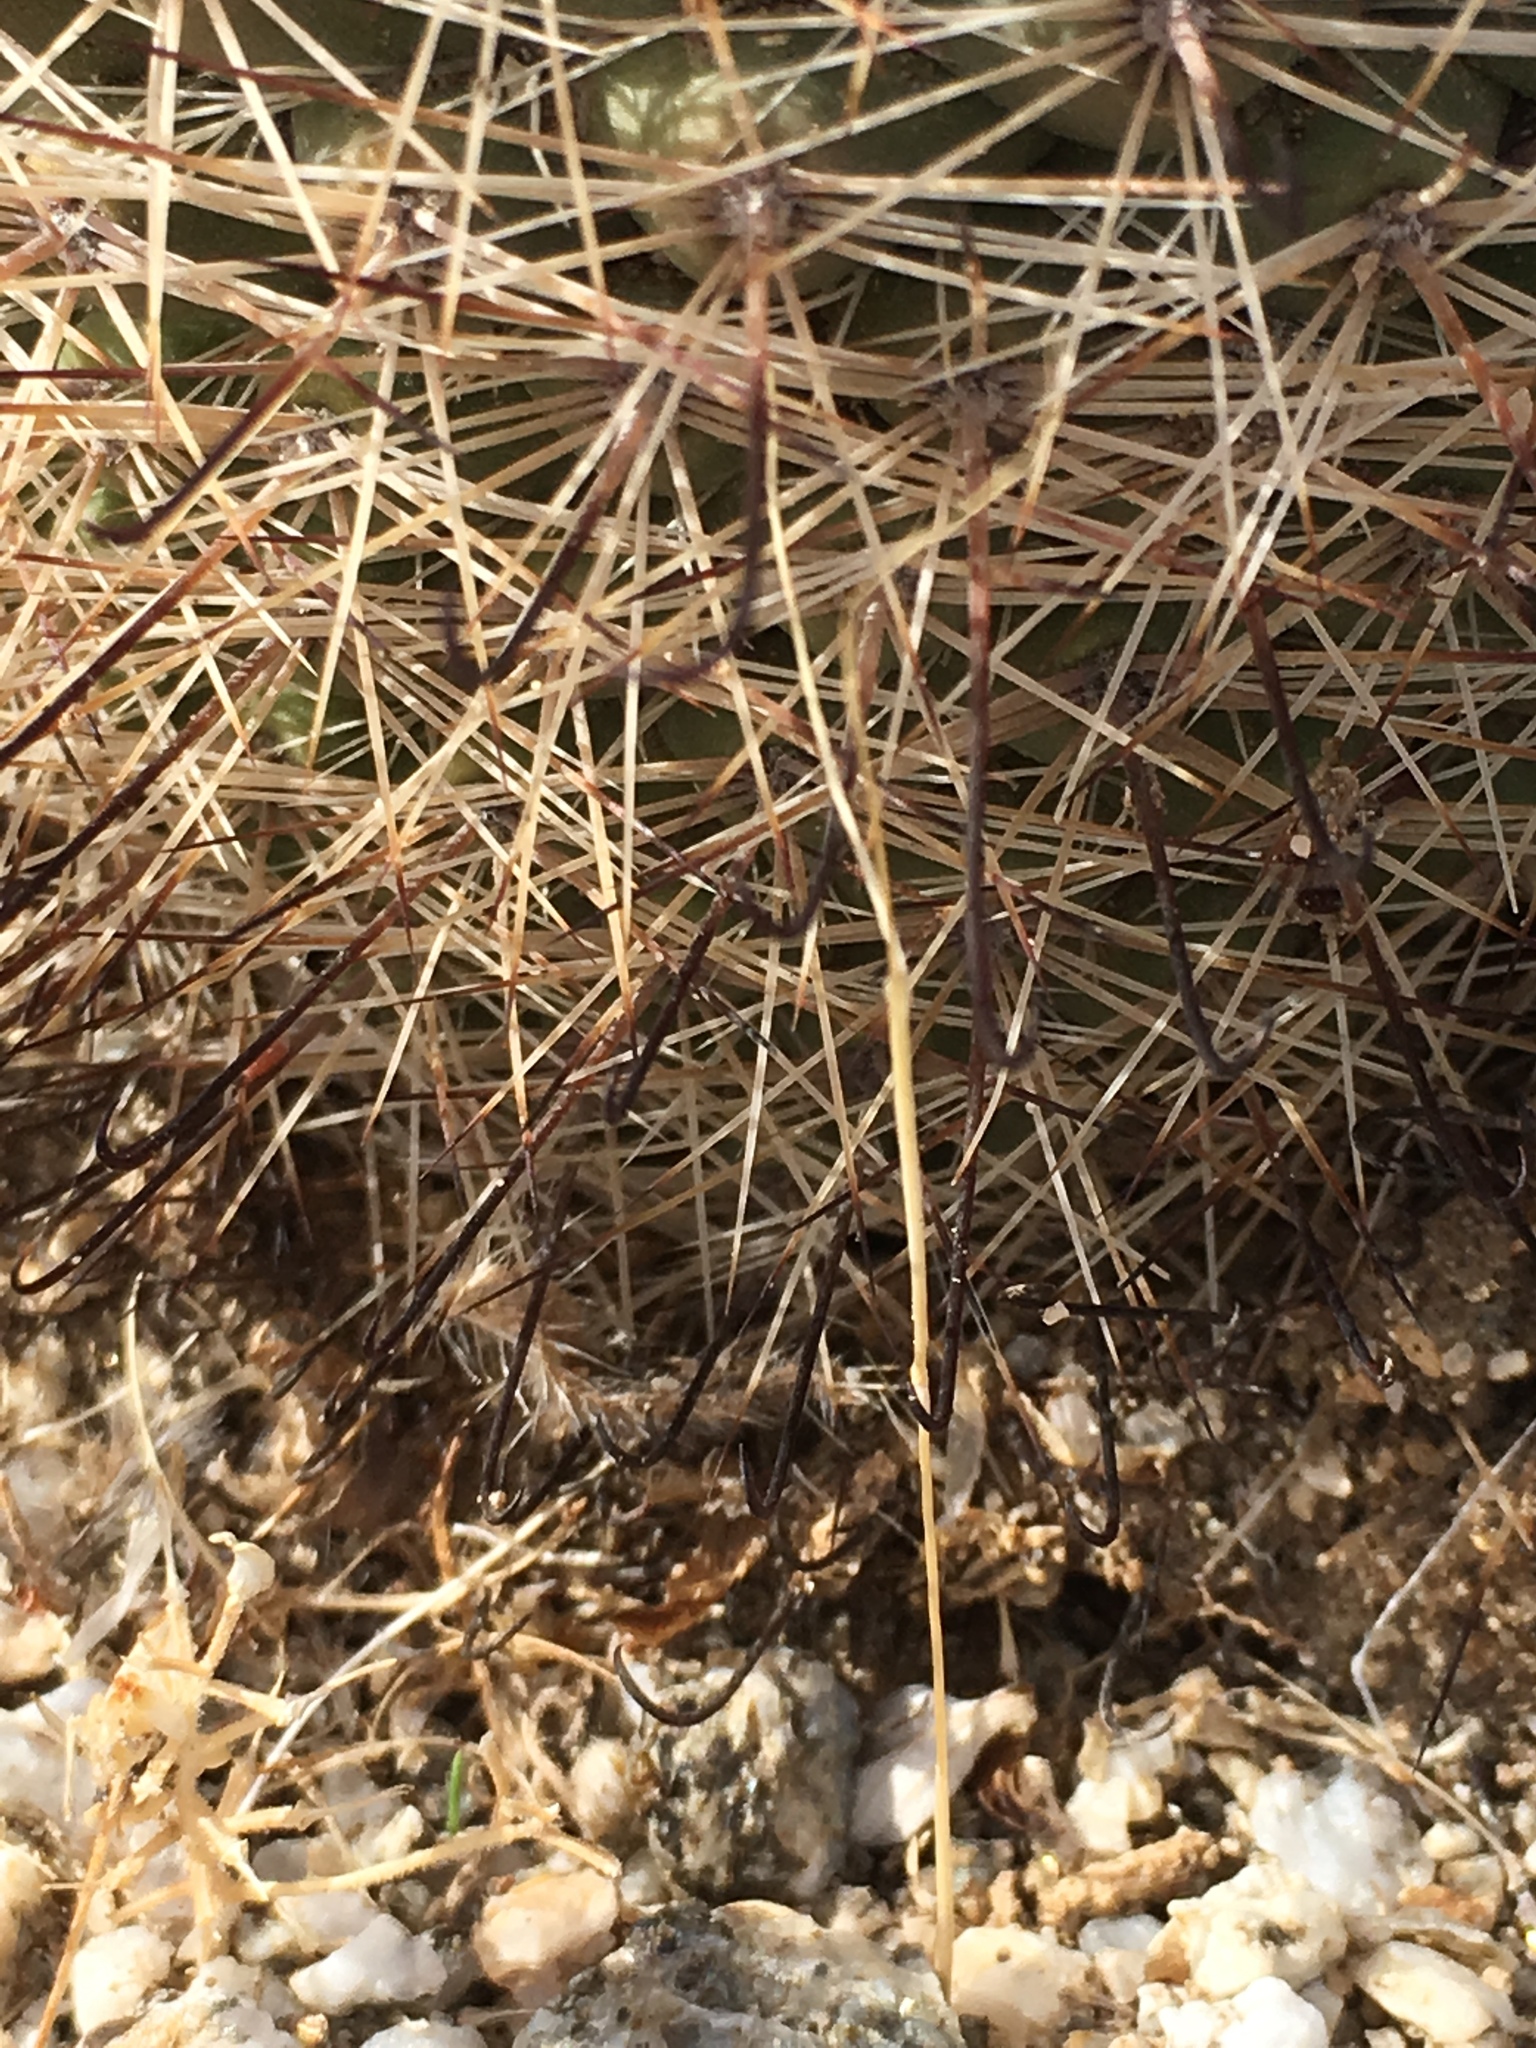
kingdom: Plantae
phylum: Tracheophyta
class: Magnoliopsida
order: Caryophyllales
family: Cactaceae
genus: Cochemiea
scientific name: Cochemiea dioica
